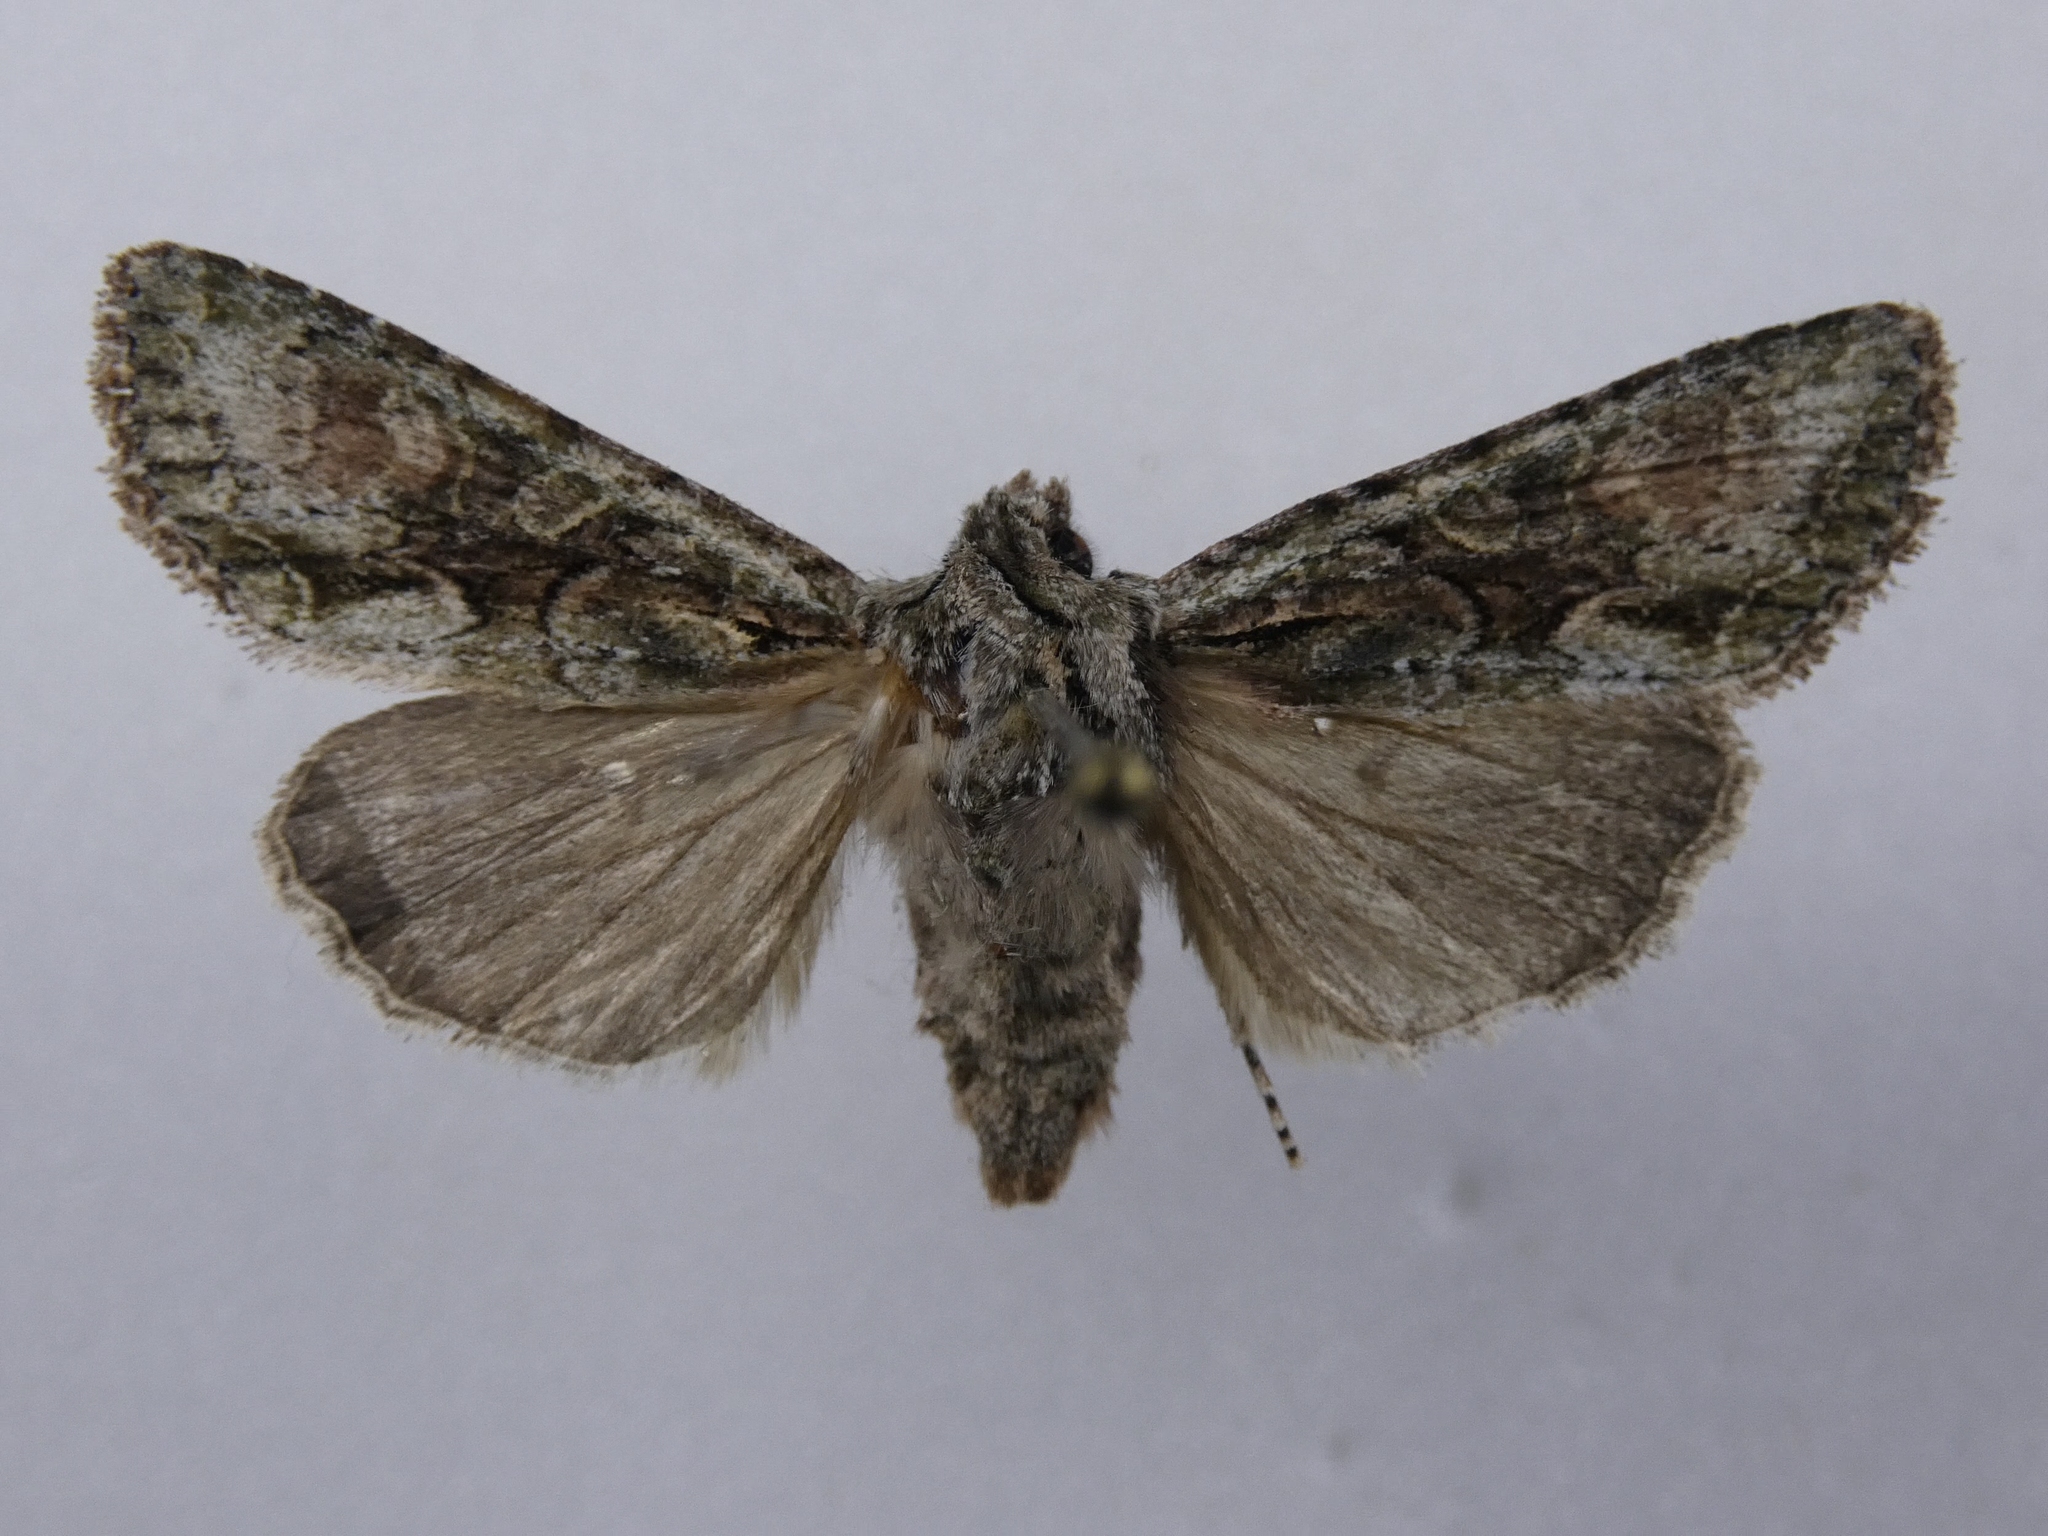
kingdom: Animalia
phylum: Arthropoda
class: Insecta
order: Lepidoptera
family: Noctuidae
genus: Ichneutica
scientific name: Ichneutica mutans
